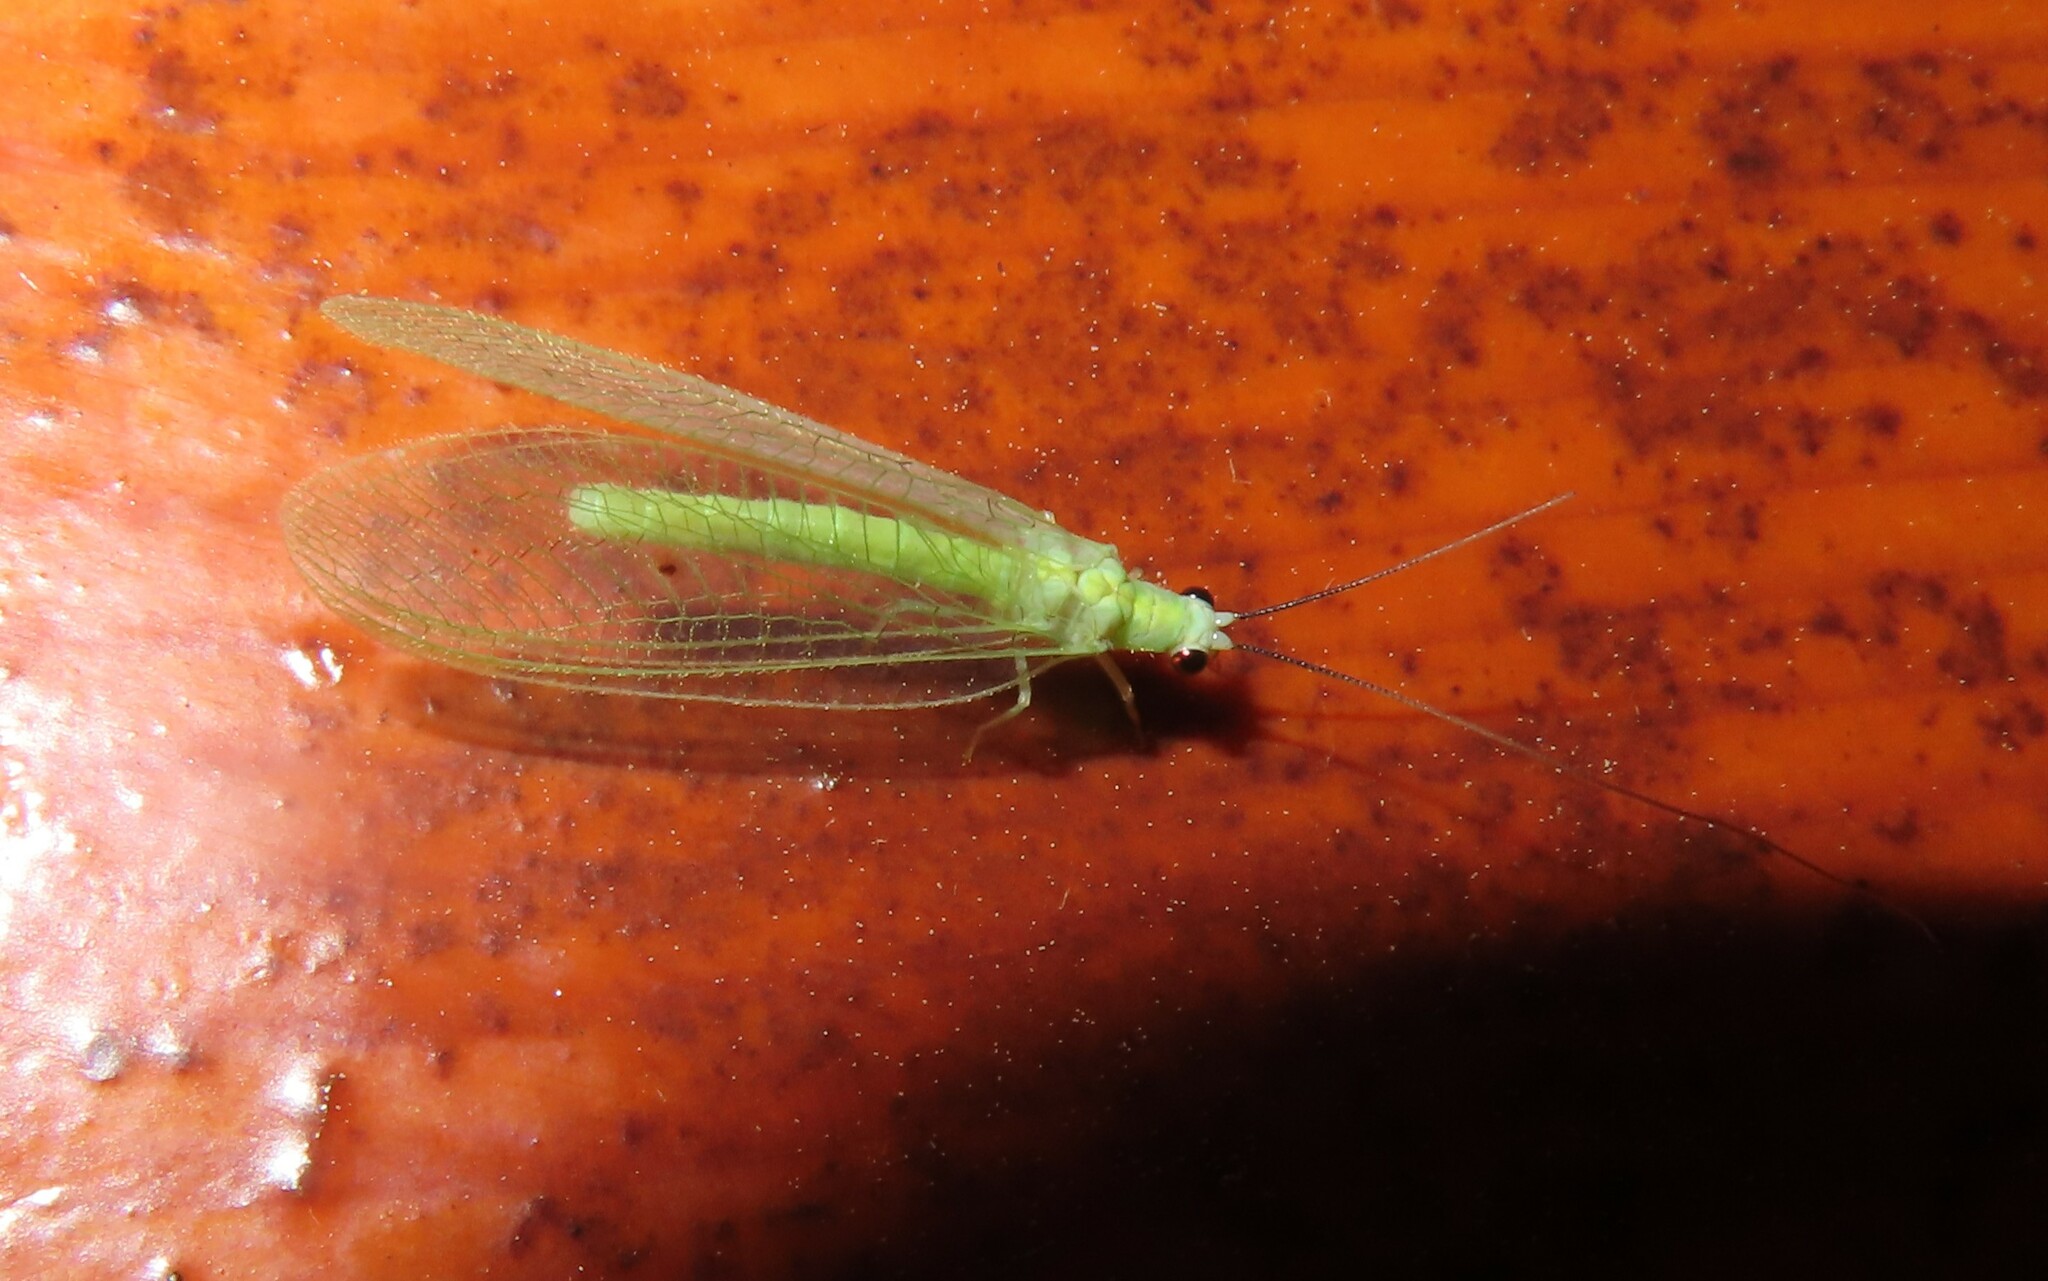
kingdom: Animalia
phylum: Arthropoda
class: Insecta
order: Neuroptera
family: Chrysopidae
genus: Chrysopa
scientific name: Chrysopa nigricornis
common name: Black-horned green lacewing
